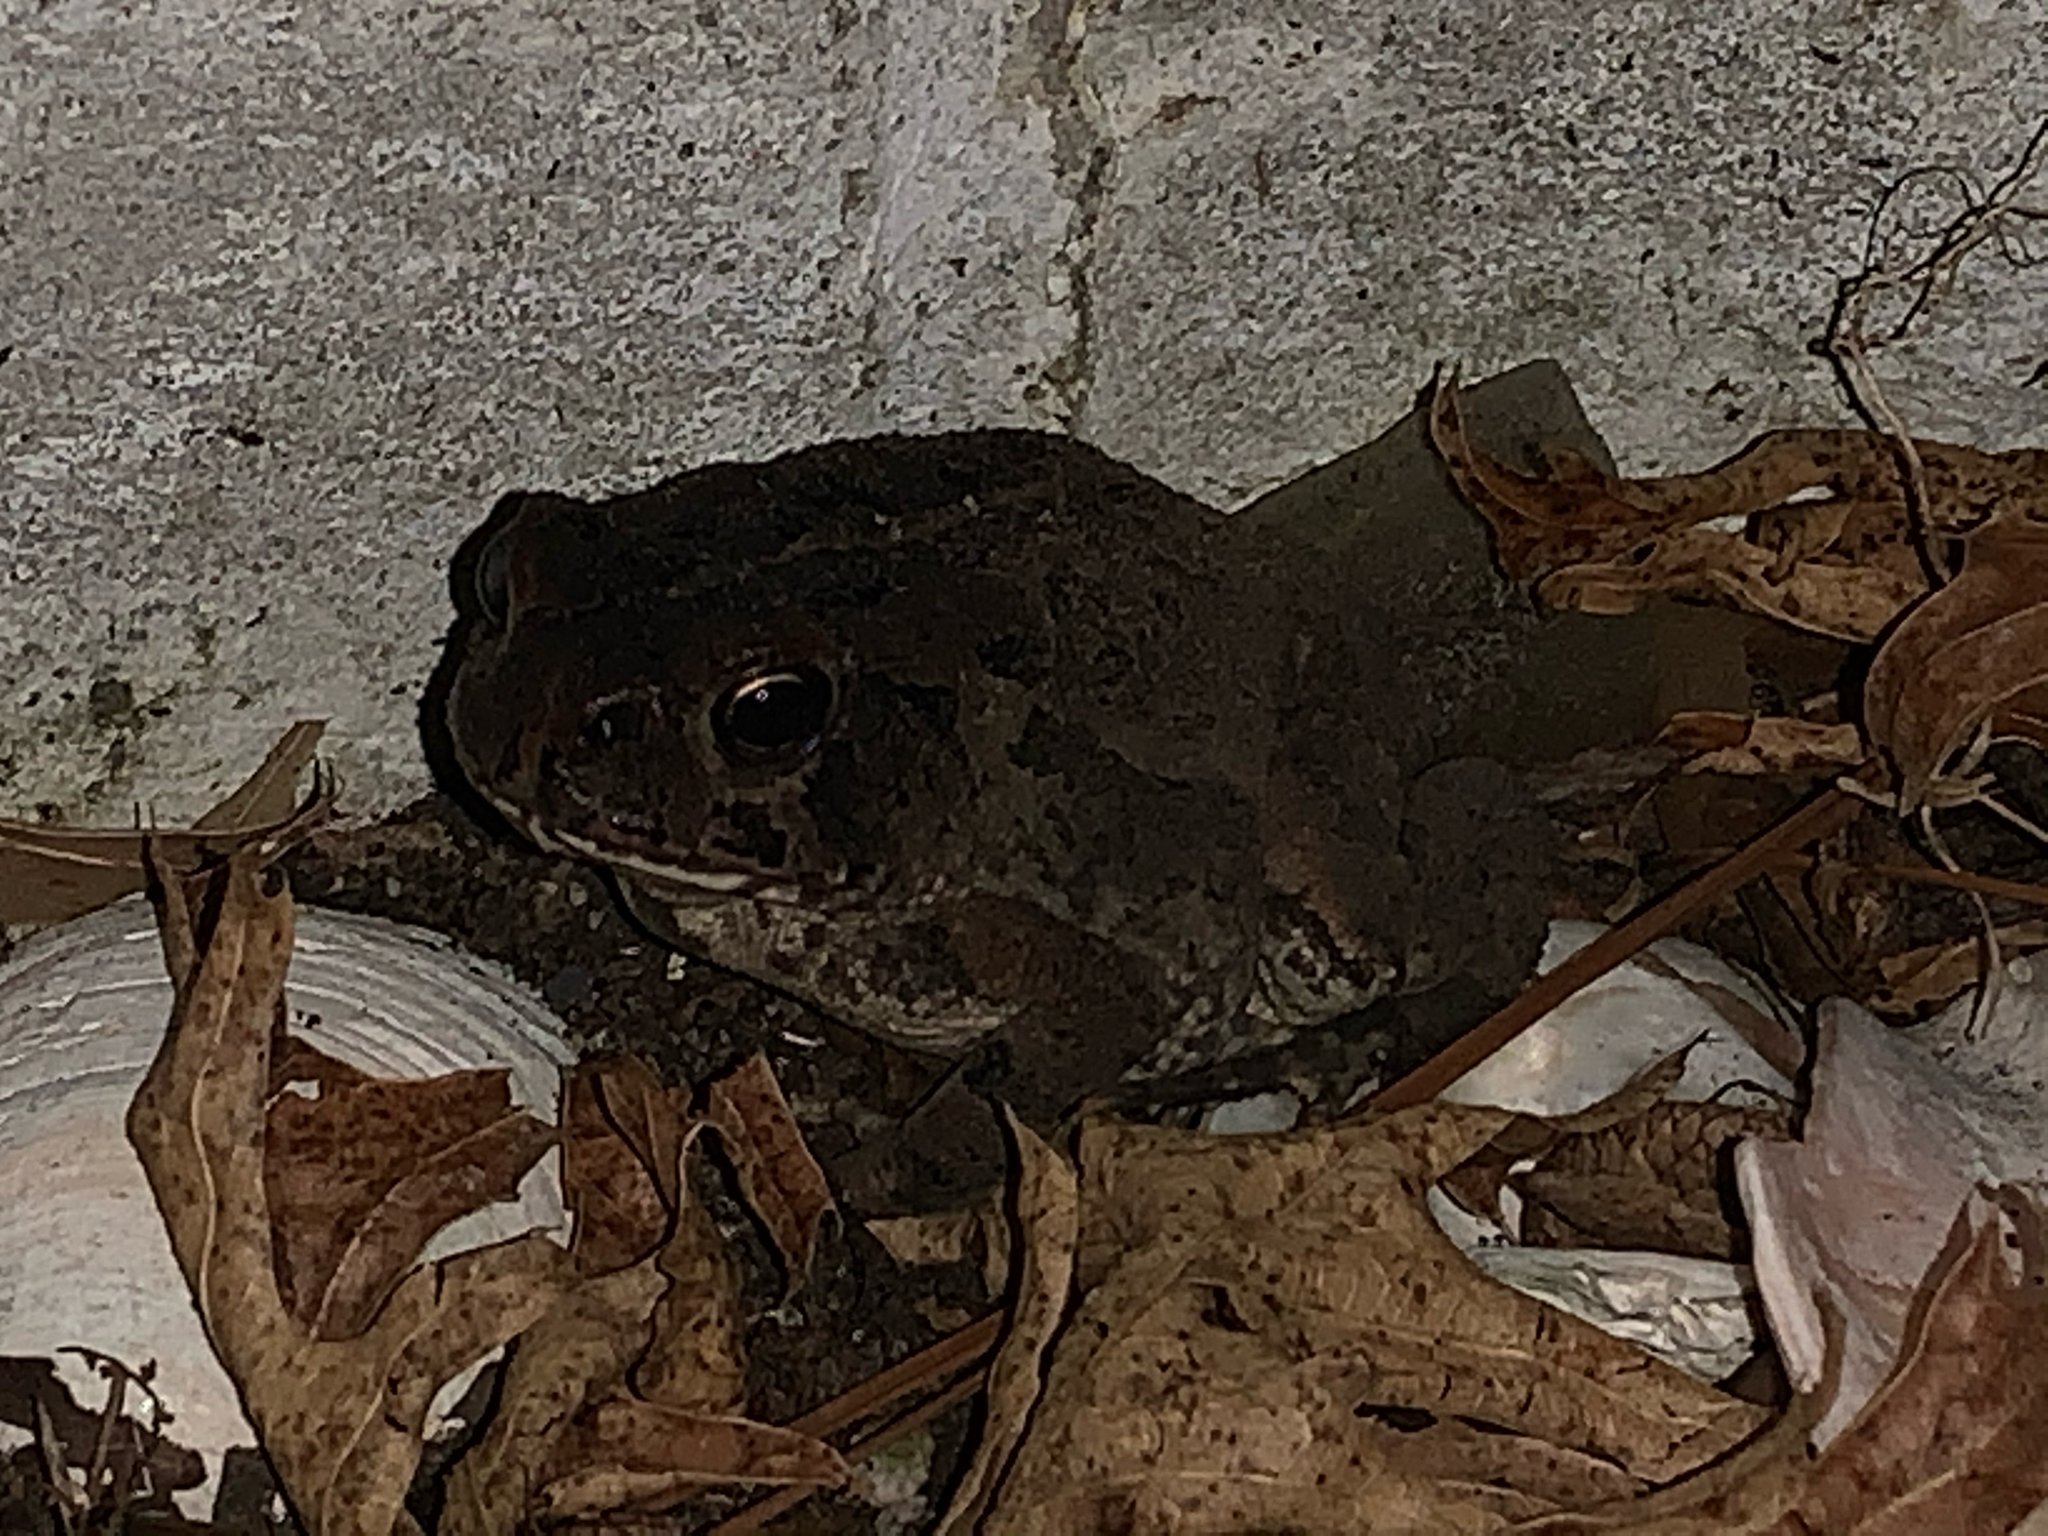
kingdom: Animalia
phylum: Chordata
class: Amphibia
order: Anura
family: Bufonidae
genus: Anaxyrus
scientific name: Anaxyrus fowleri
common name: Fowler's toad
